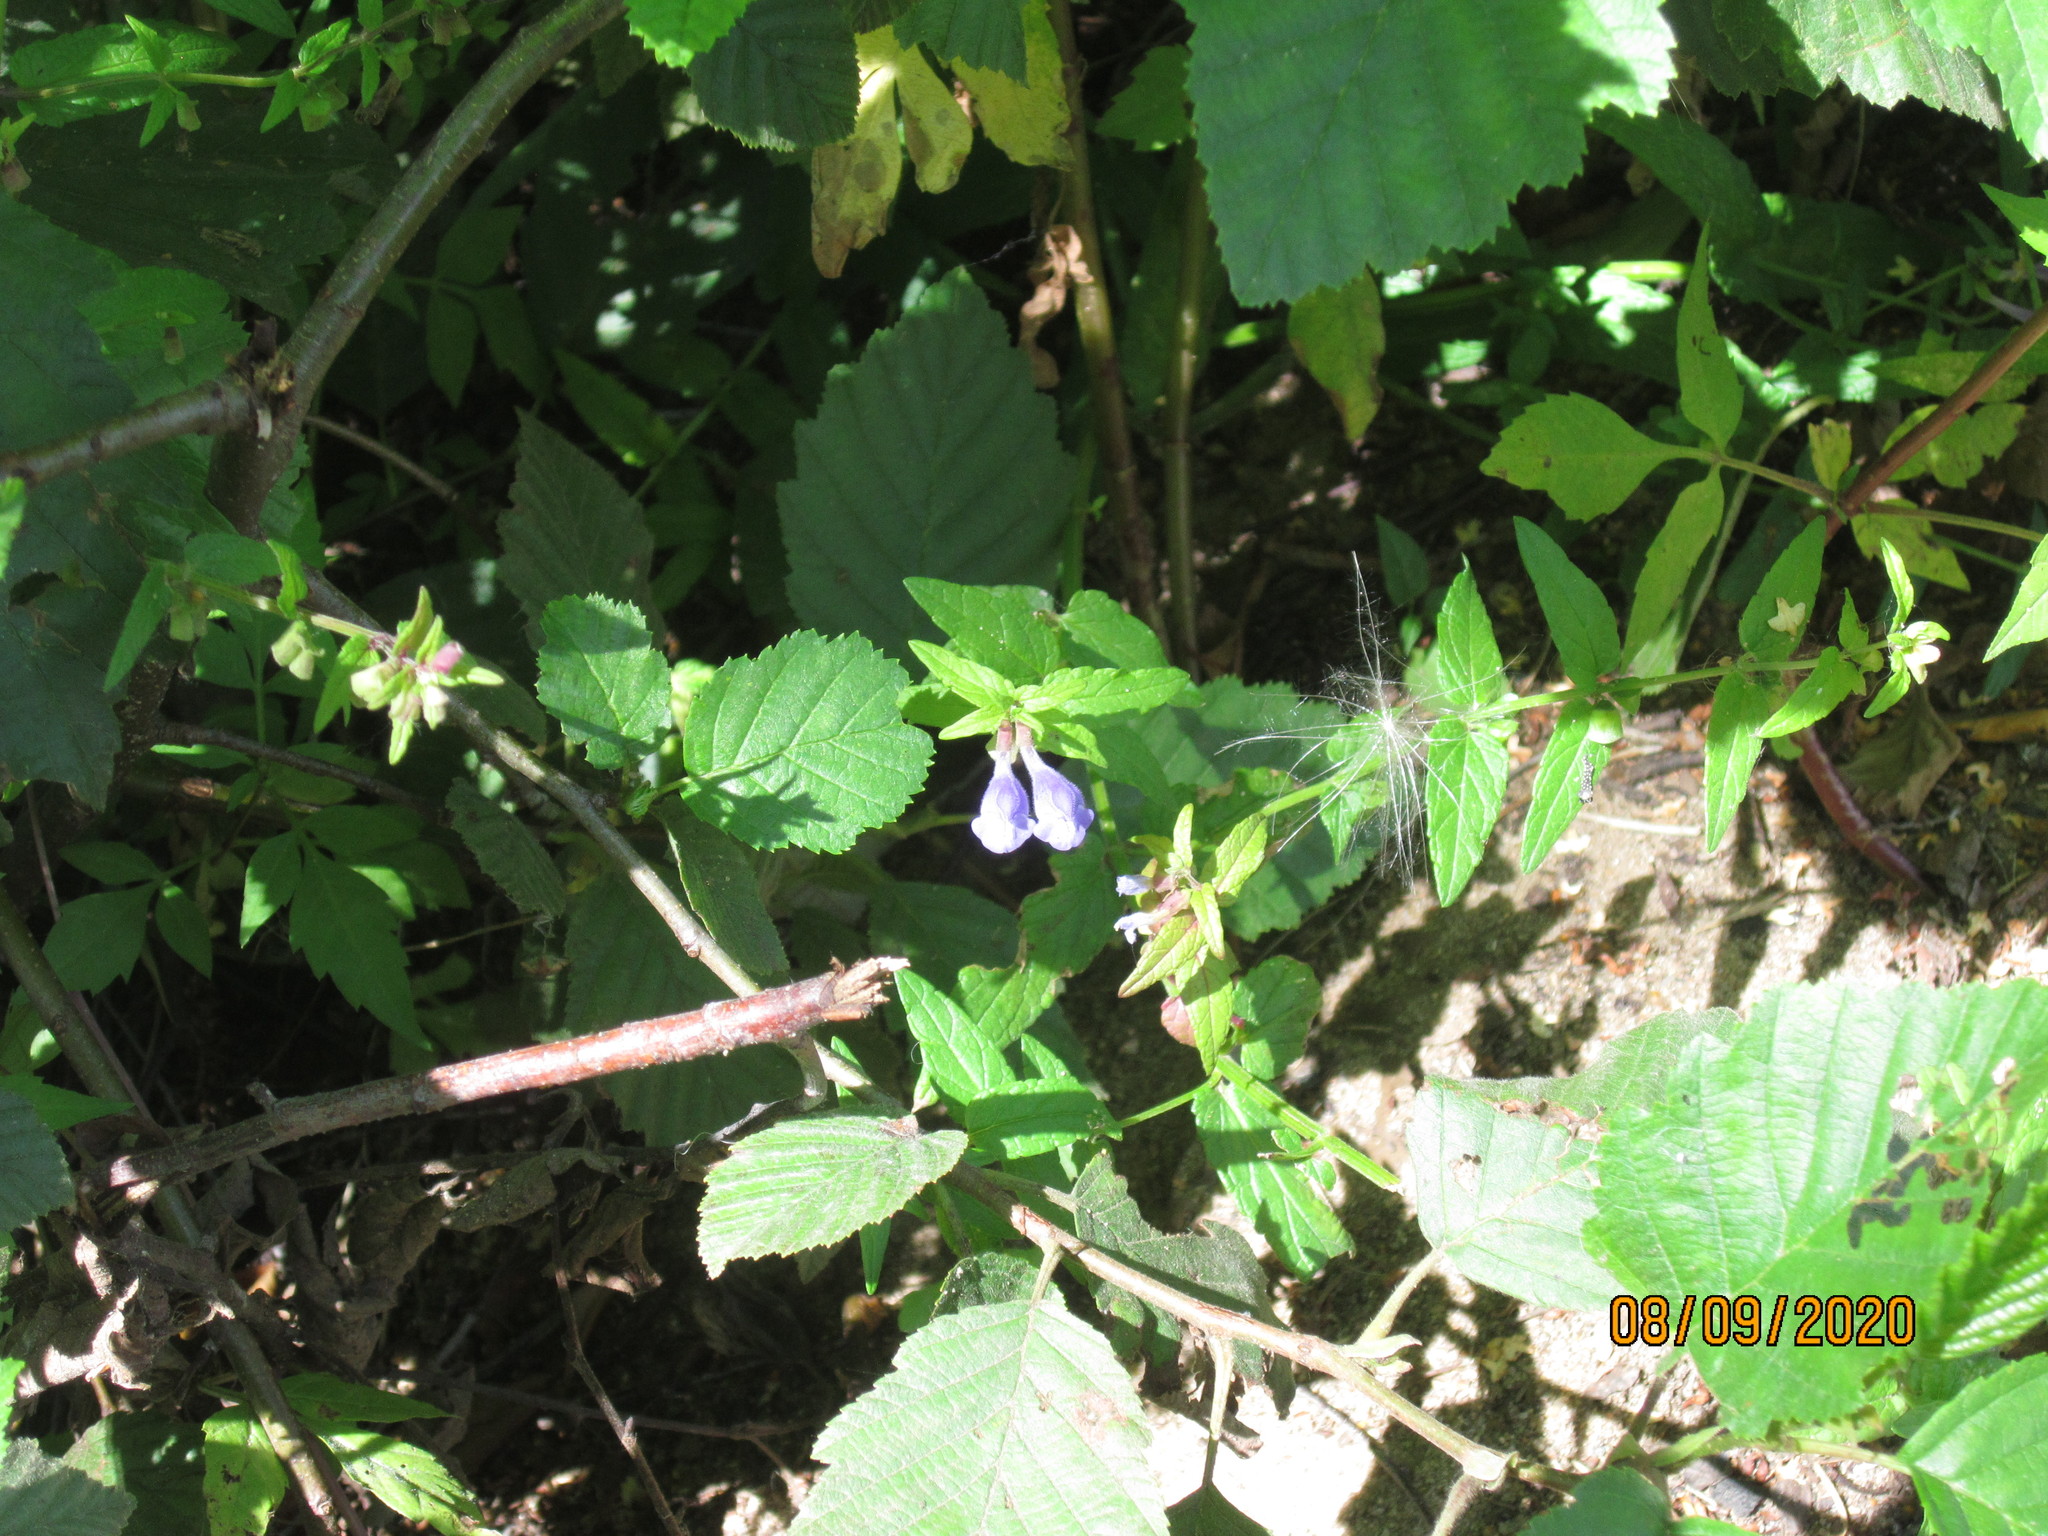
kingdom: Plantae
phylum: Tracheophyta
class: Magnoliopsida
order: Lamiales
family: Lamiaceae
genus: Scutellaria
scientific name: Scutellaria galericulata
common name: Skullcap
